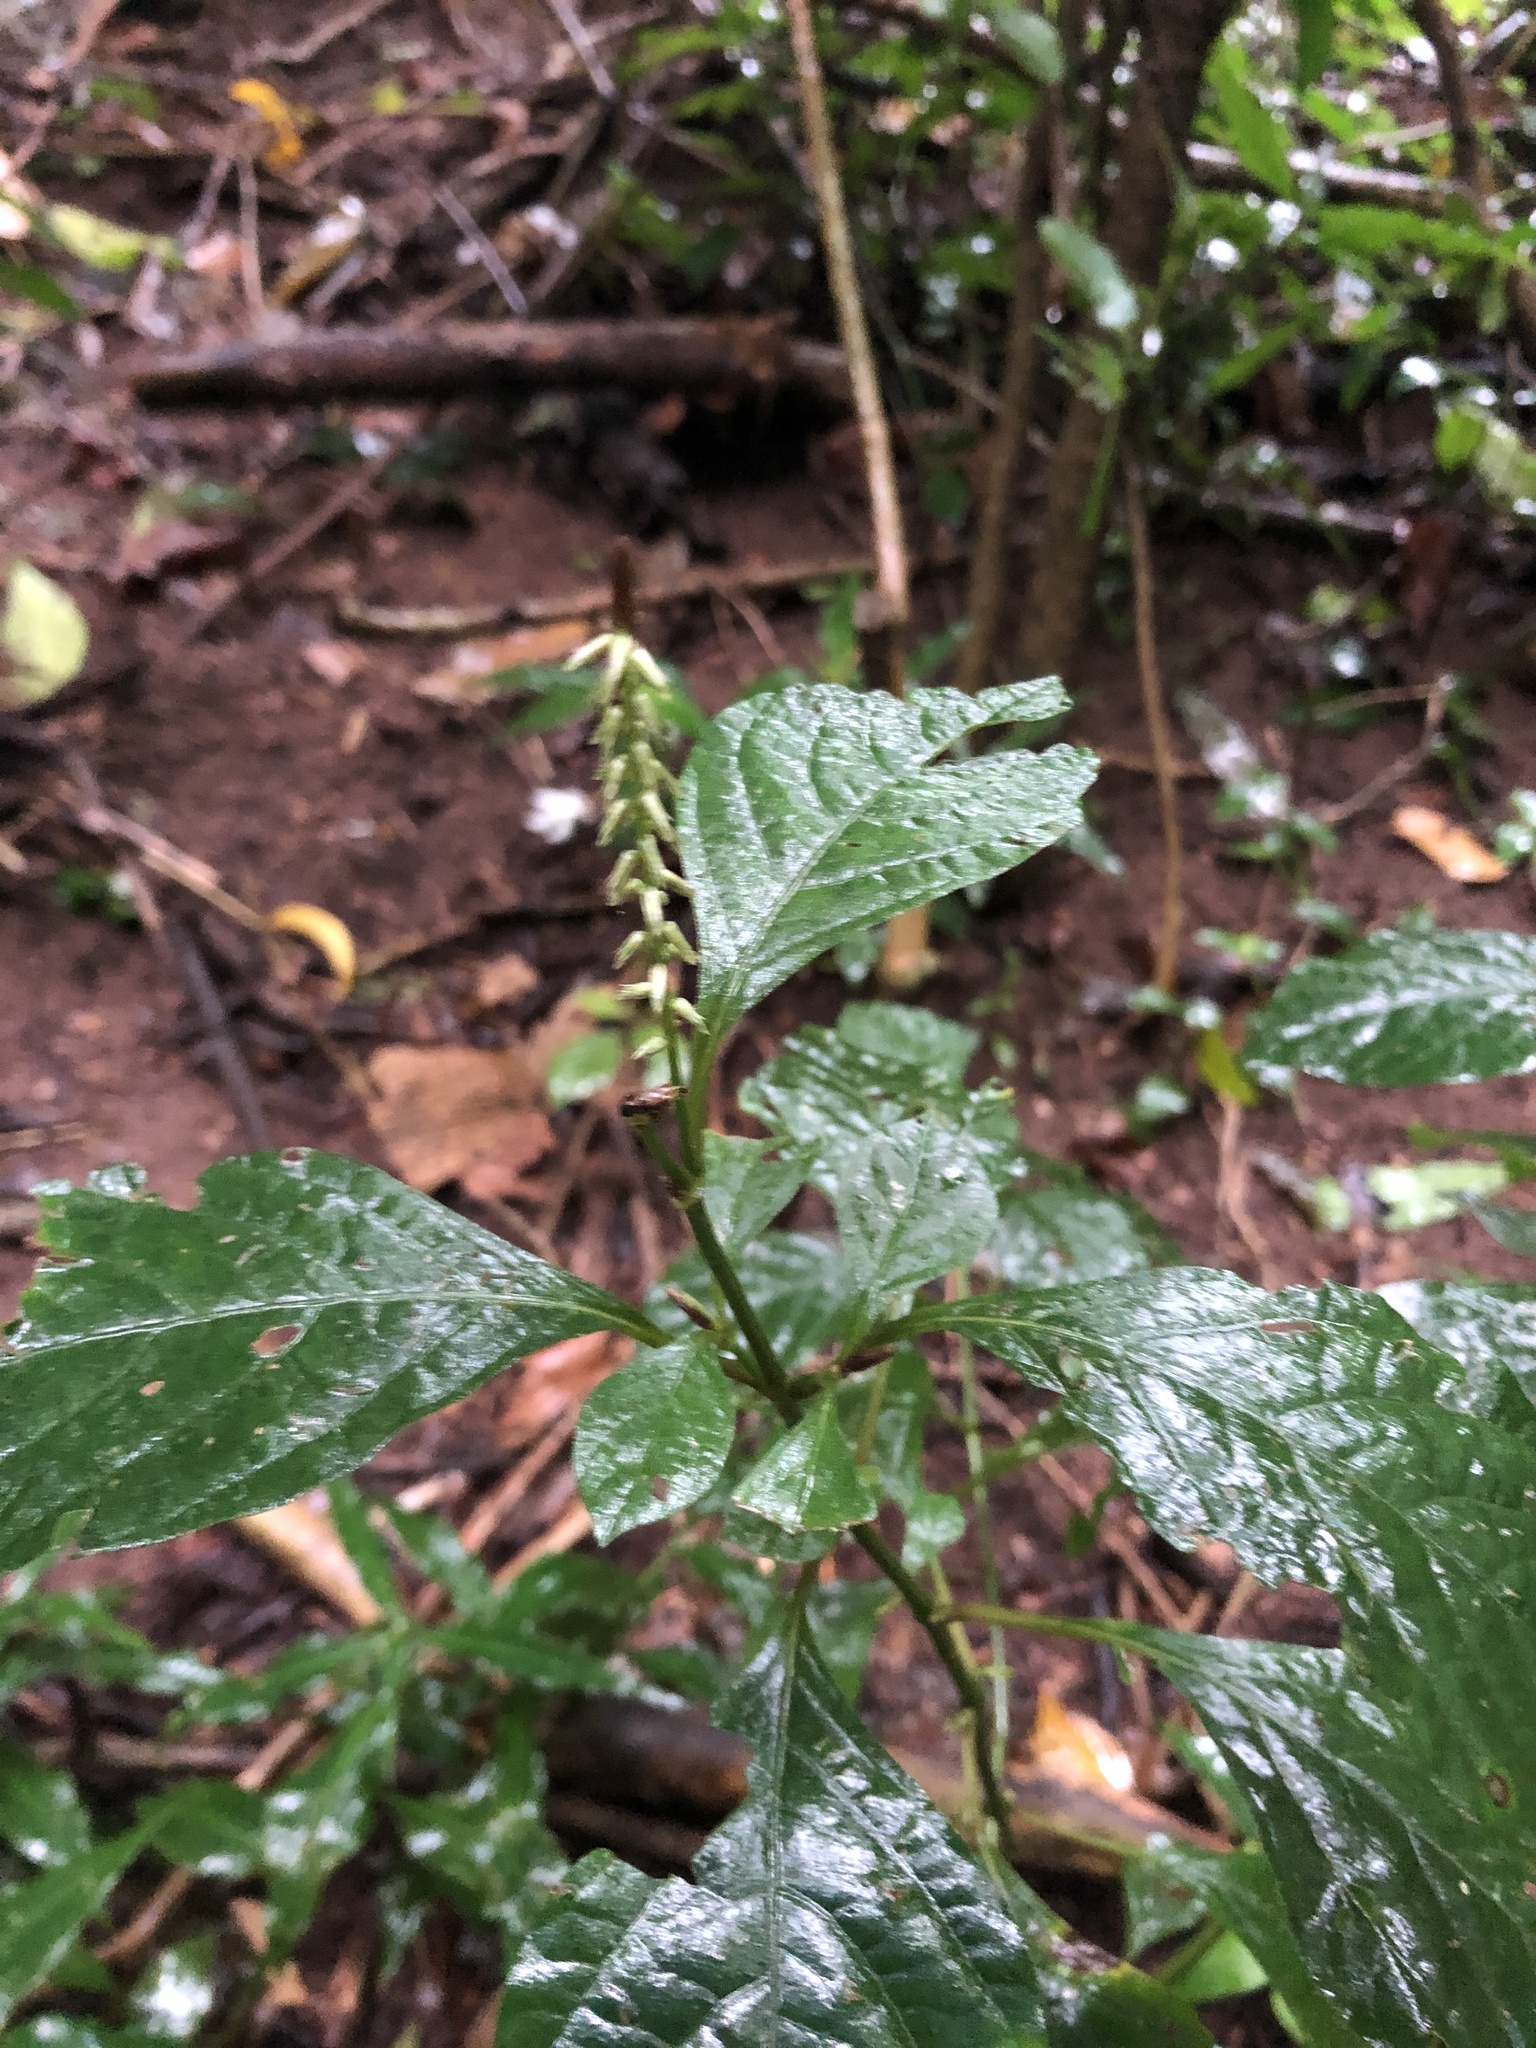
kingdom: Plantae
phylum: Tracheophyta
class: Magnoliopsida
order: Caryophyllales
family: Amaranthaceae
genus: Achyranthes
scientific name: Achyranthes aspera
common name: Devil's horsewhip
